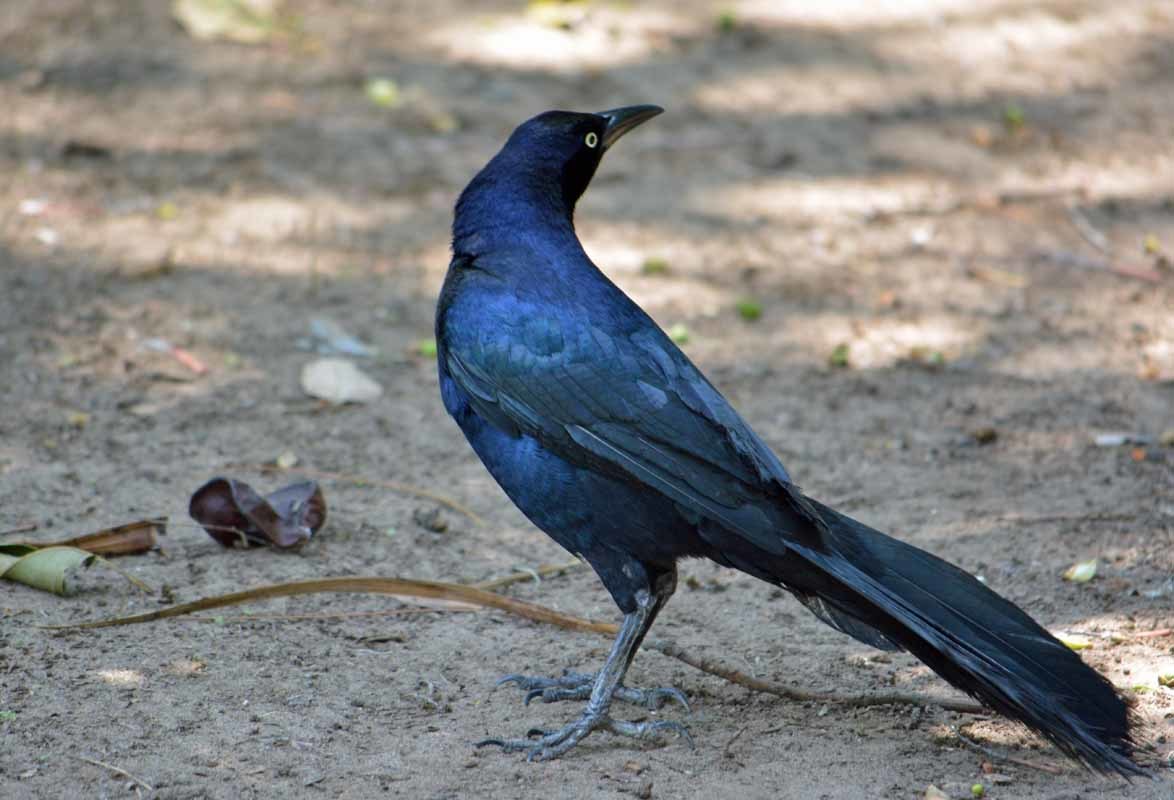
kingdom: Animalia
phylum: Chordata
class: Aves
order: Passeriformes
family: Icteridae
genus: Quiscalus
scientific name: Quiscalus mexicanus
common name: Great-tailed grackle
